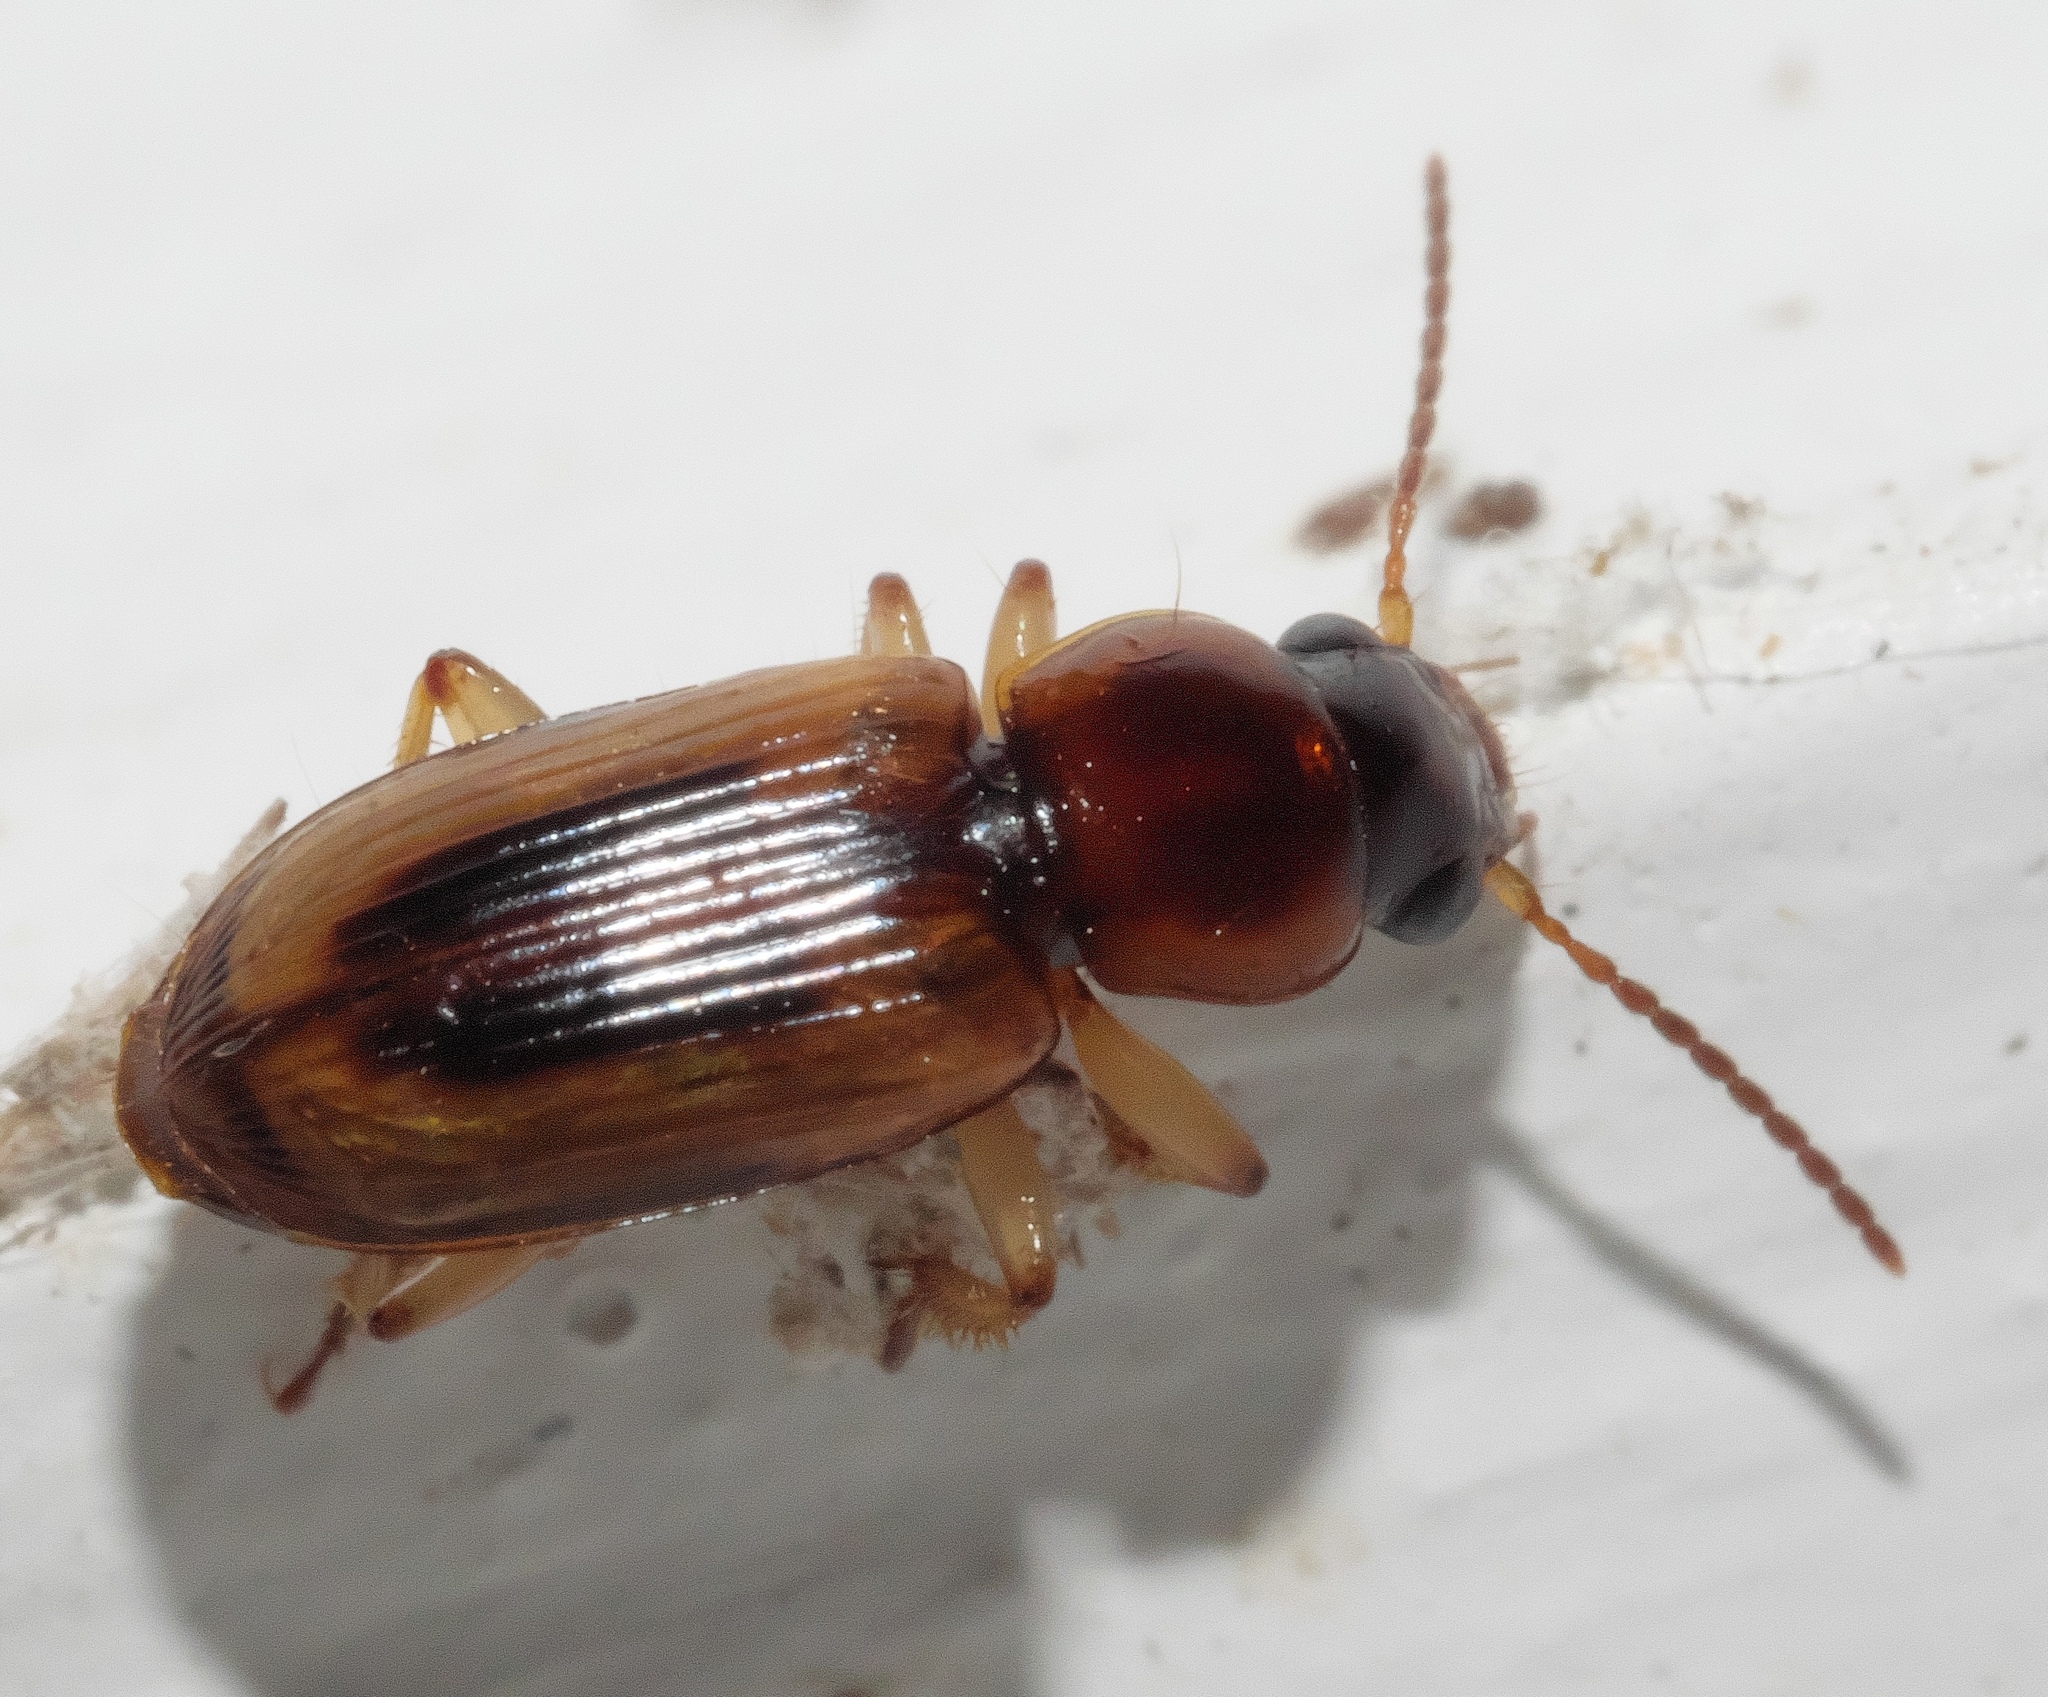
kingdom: Animalia
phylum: Arthropoda
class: Insecta
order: Coleoptera
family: Carabidae
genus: Stenolophus
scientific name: Stenolophus lecontei
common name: Leconte's seedcorn beetle
